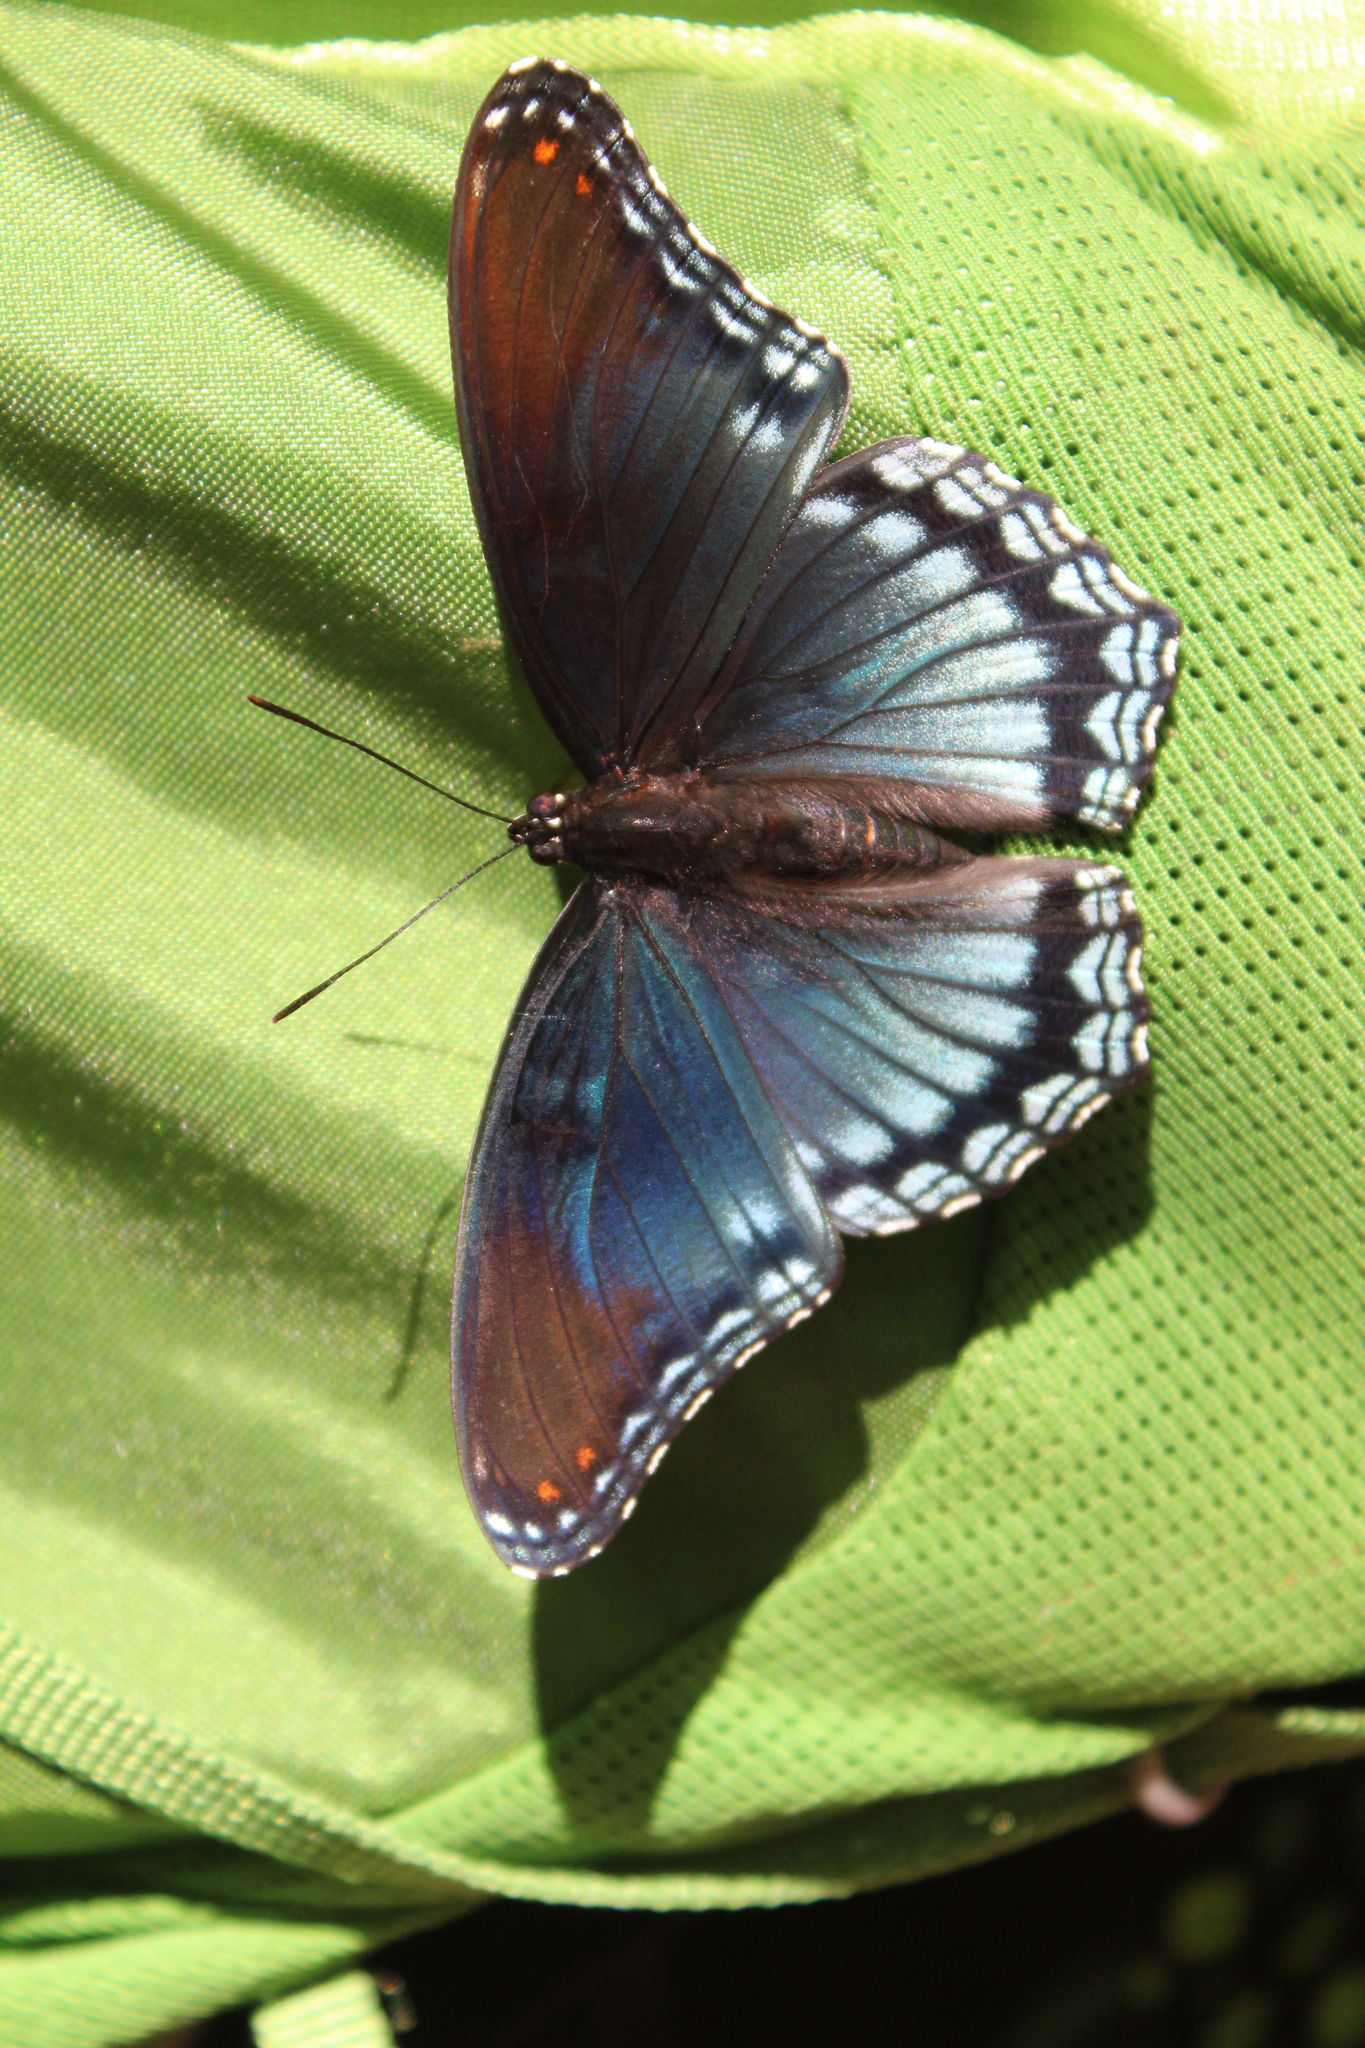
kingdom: Animalia
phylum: Arthropoda
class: Insecta
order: Lepidoptera
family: Nymphalidae
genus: Limenitis
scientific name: Limenitis astyanax
